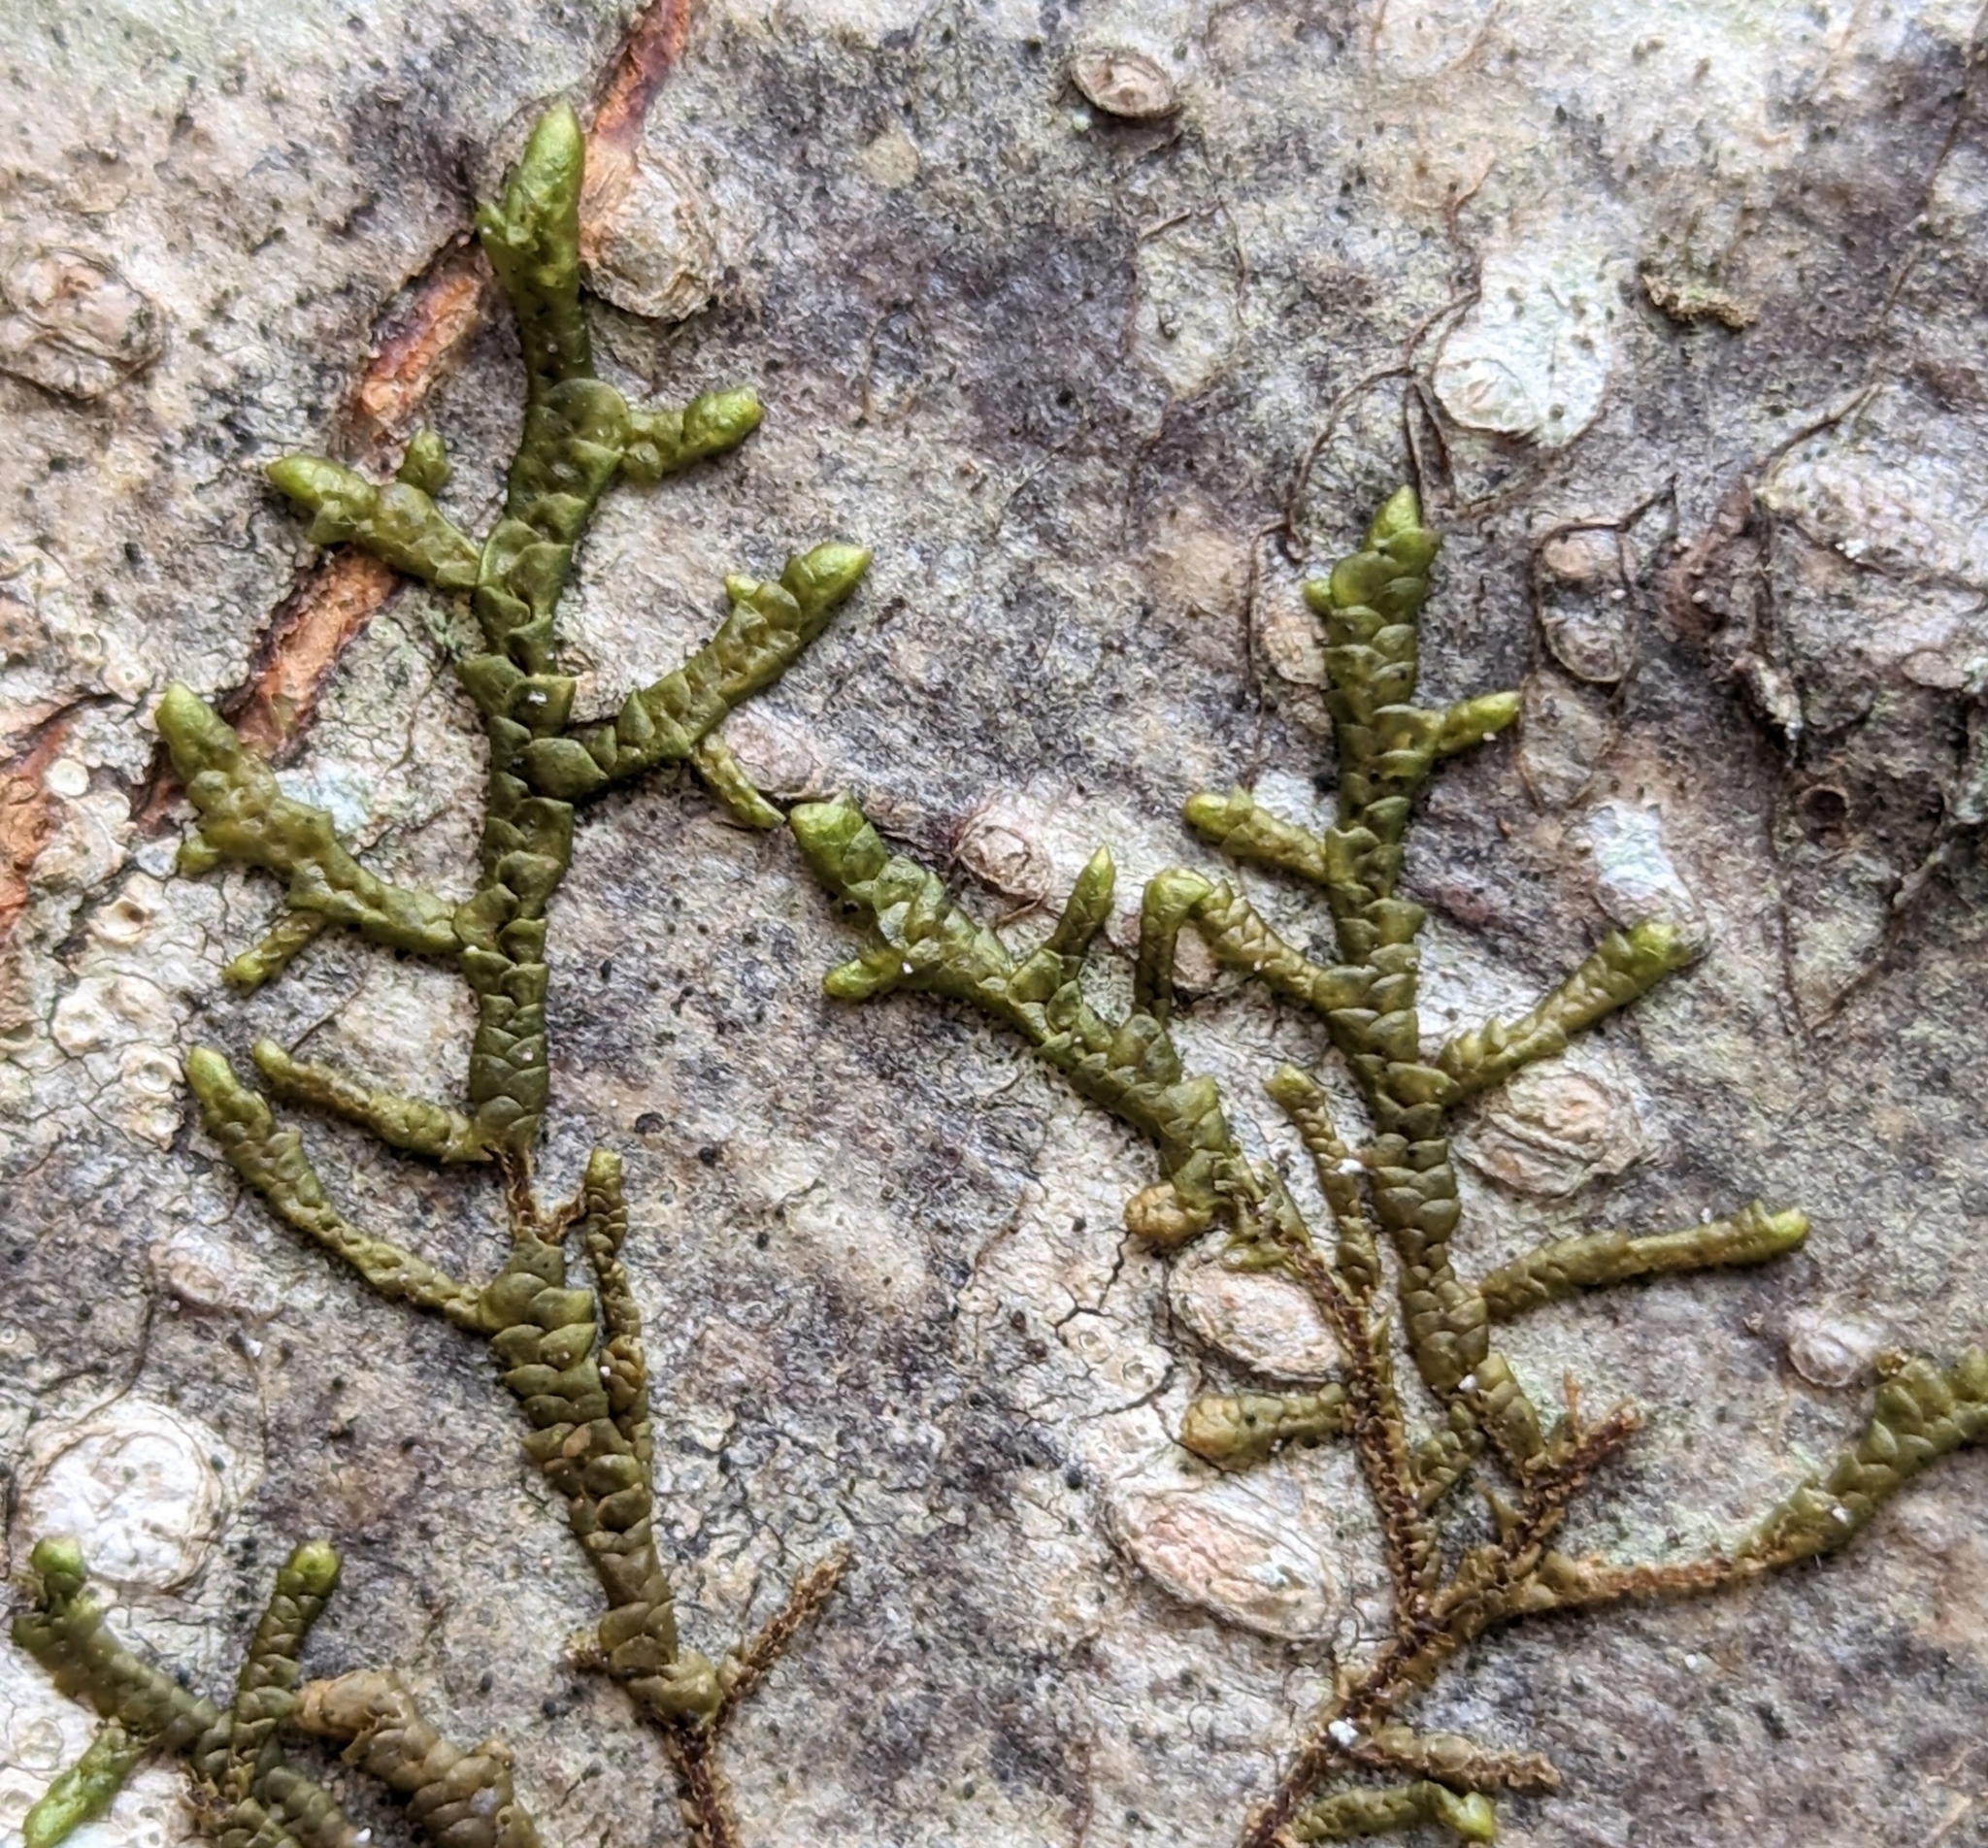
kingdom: Plantae
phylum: Marchantiophyta
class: Jungermanniopsida
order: Porellales
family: Porellaceae
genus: Porella
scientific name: Porella navicularis
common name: Tree ruffle liverwort
